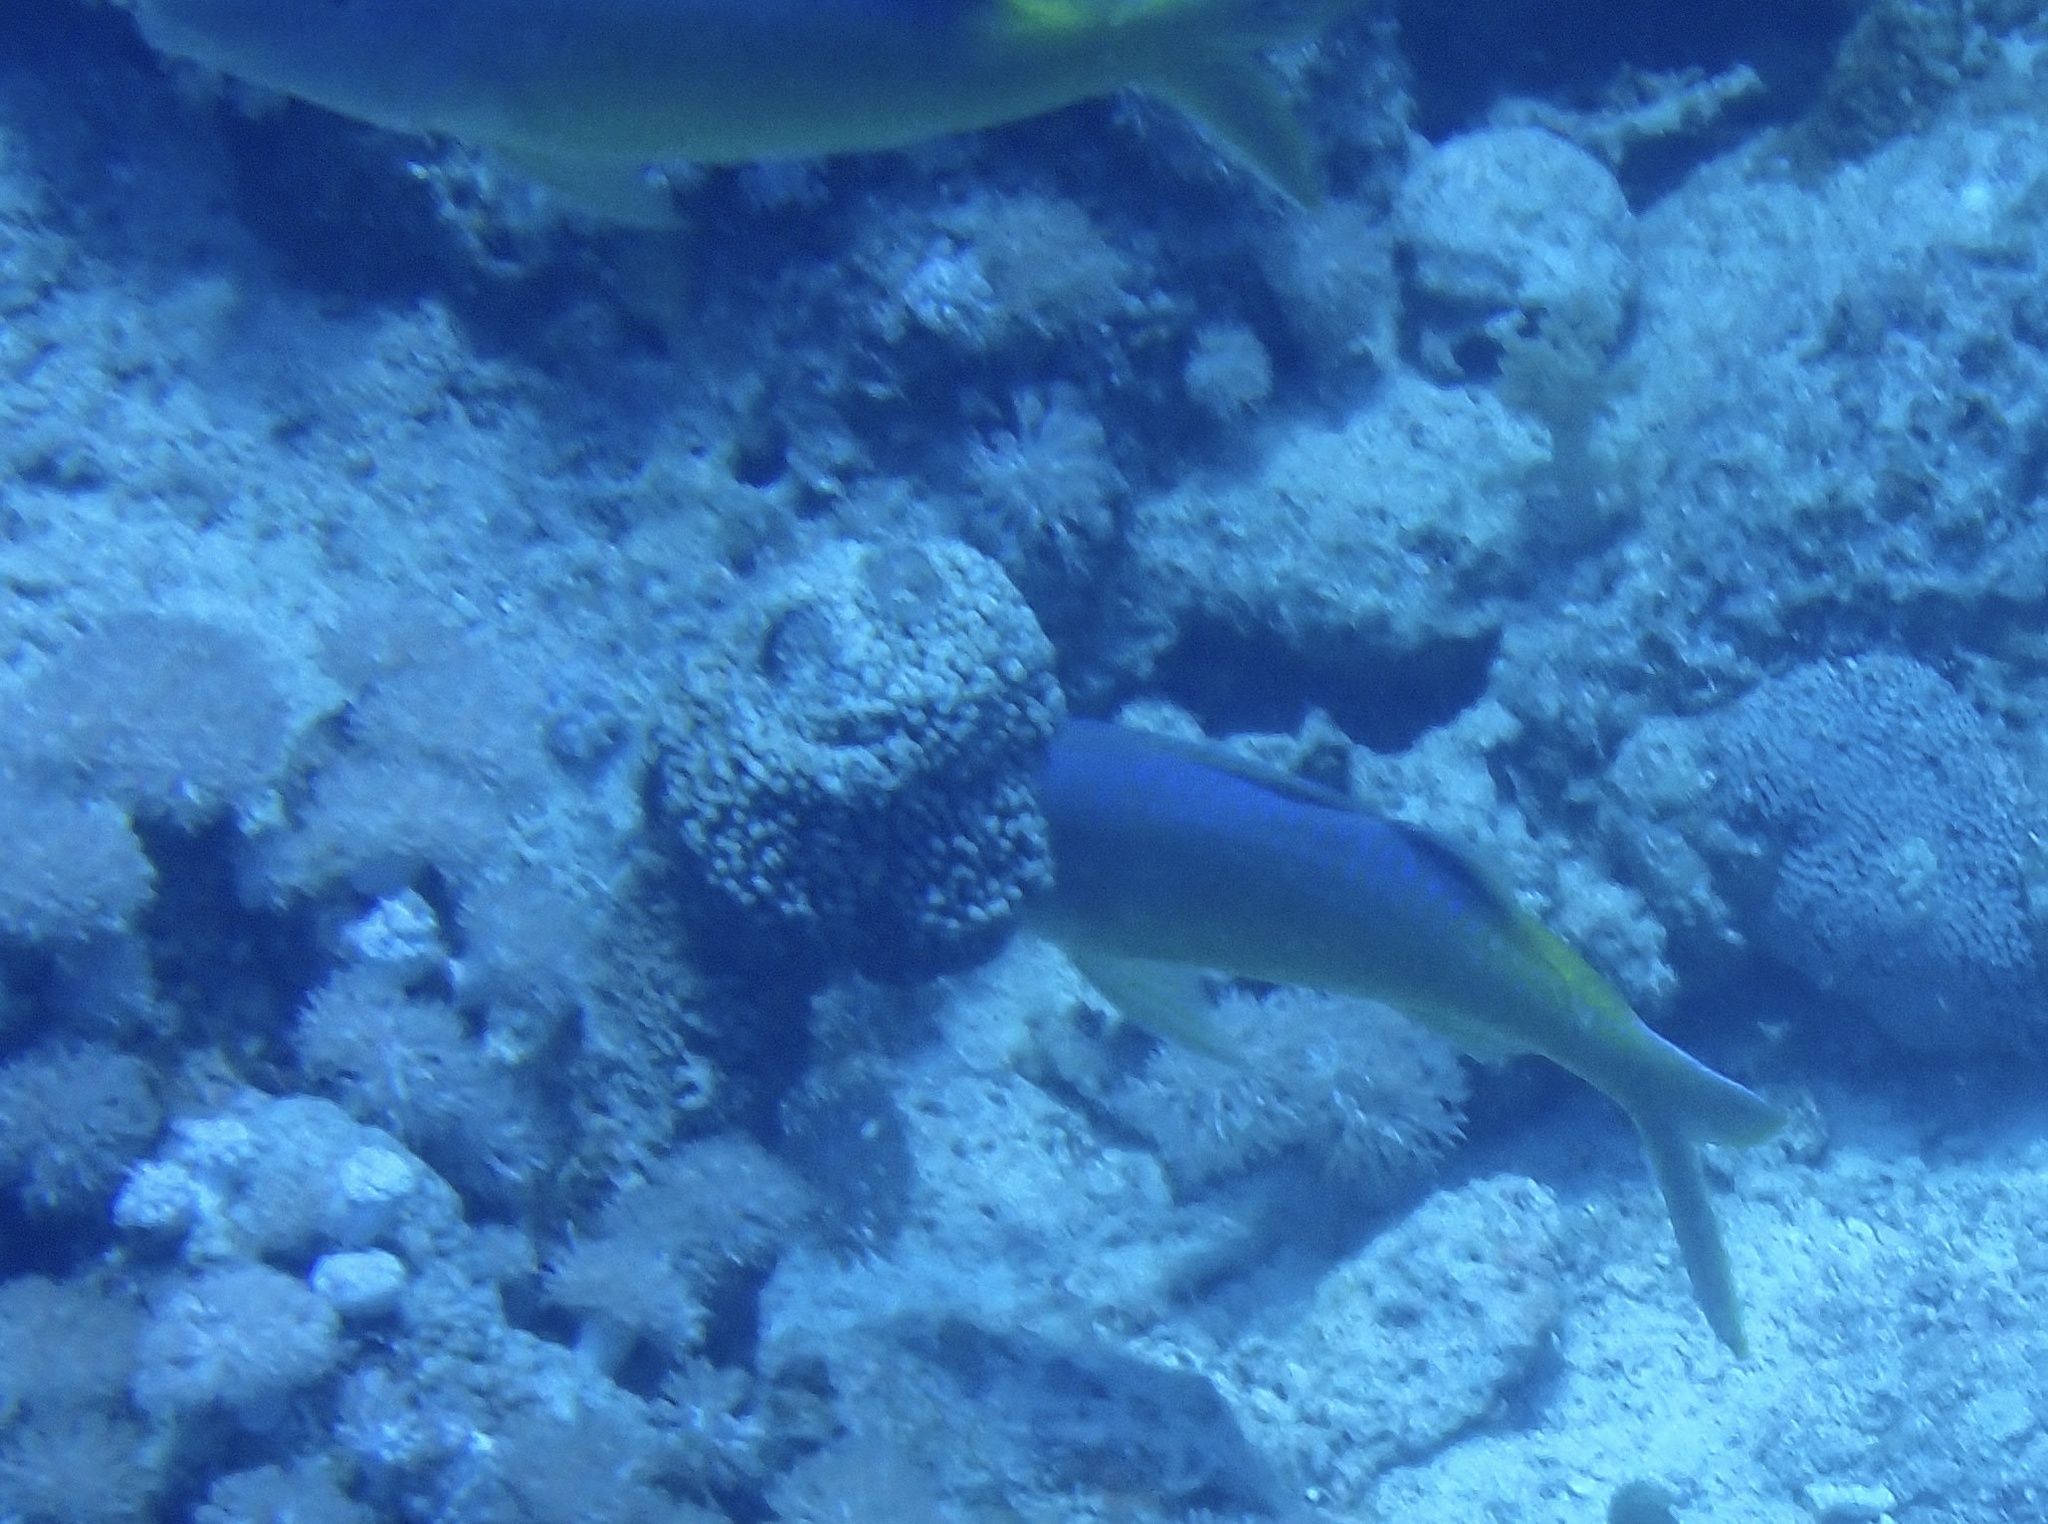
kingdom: Animalia
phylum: Chordata
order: Perciformes
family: Mullidae
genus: Parupeneus
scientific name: Parupeneus cyclostomus
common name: Goldsaddle goatfish
